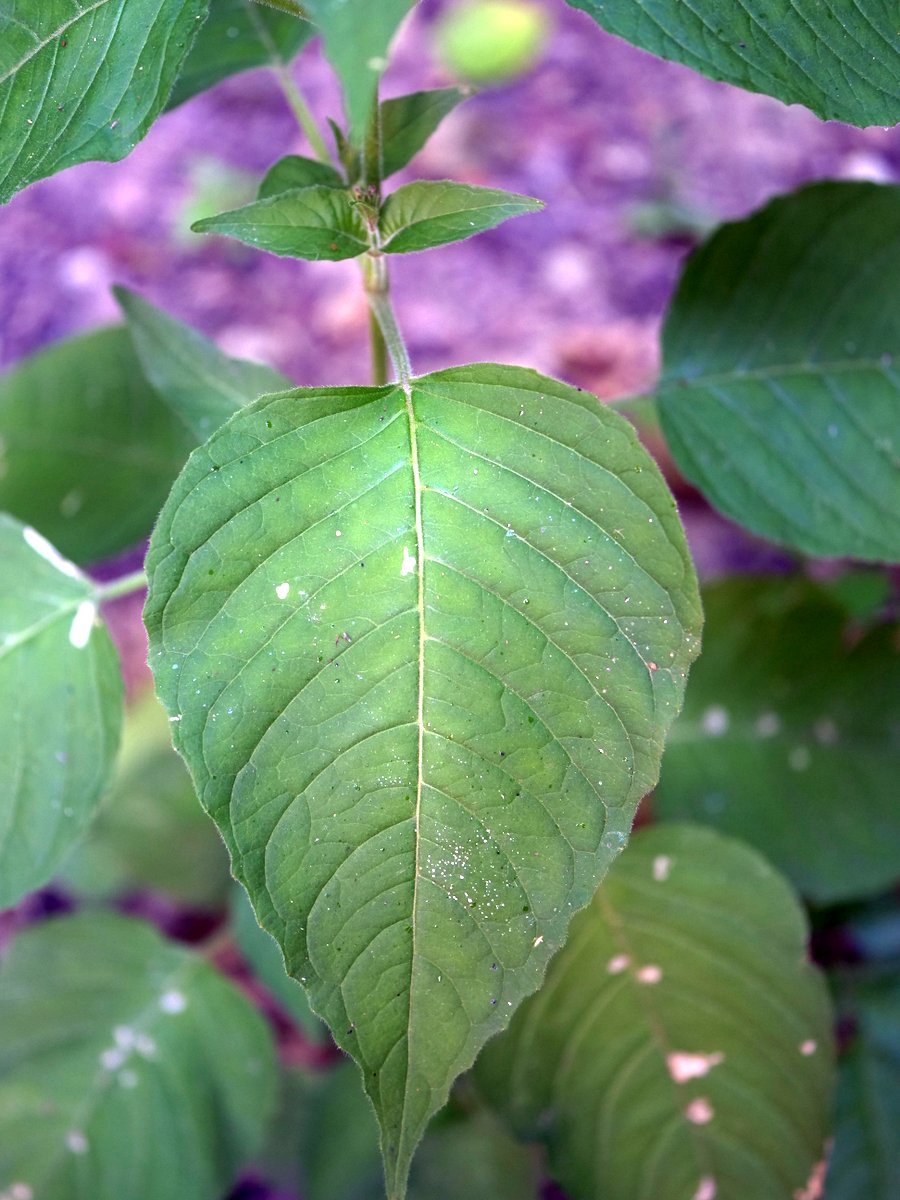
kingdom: Plantae
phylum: Tracheophyta
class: Magnoliopsida
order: Myrtales
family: Onagraceae
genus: Circaea
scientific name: Circaea lutetiana
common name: Enchanter's-nightshade
